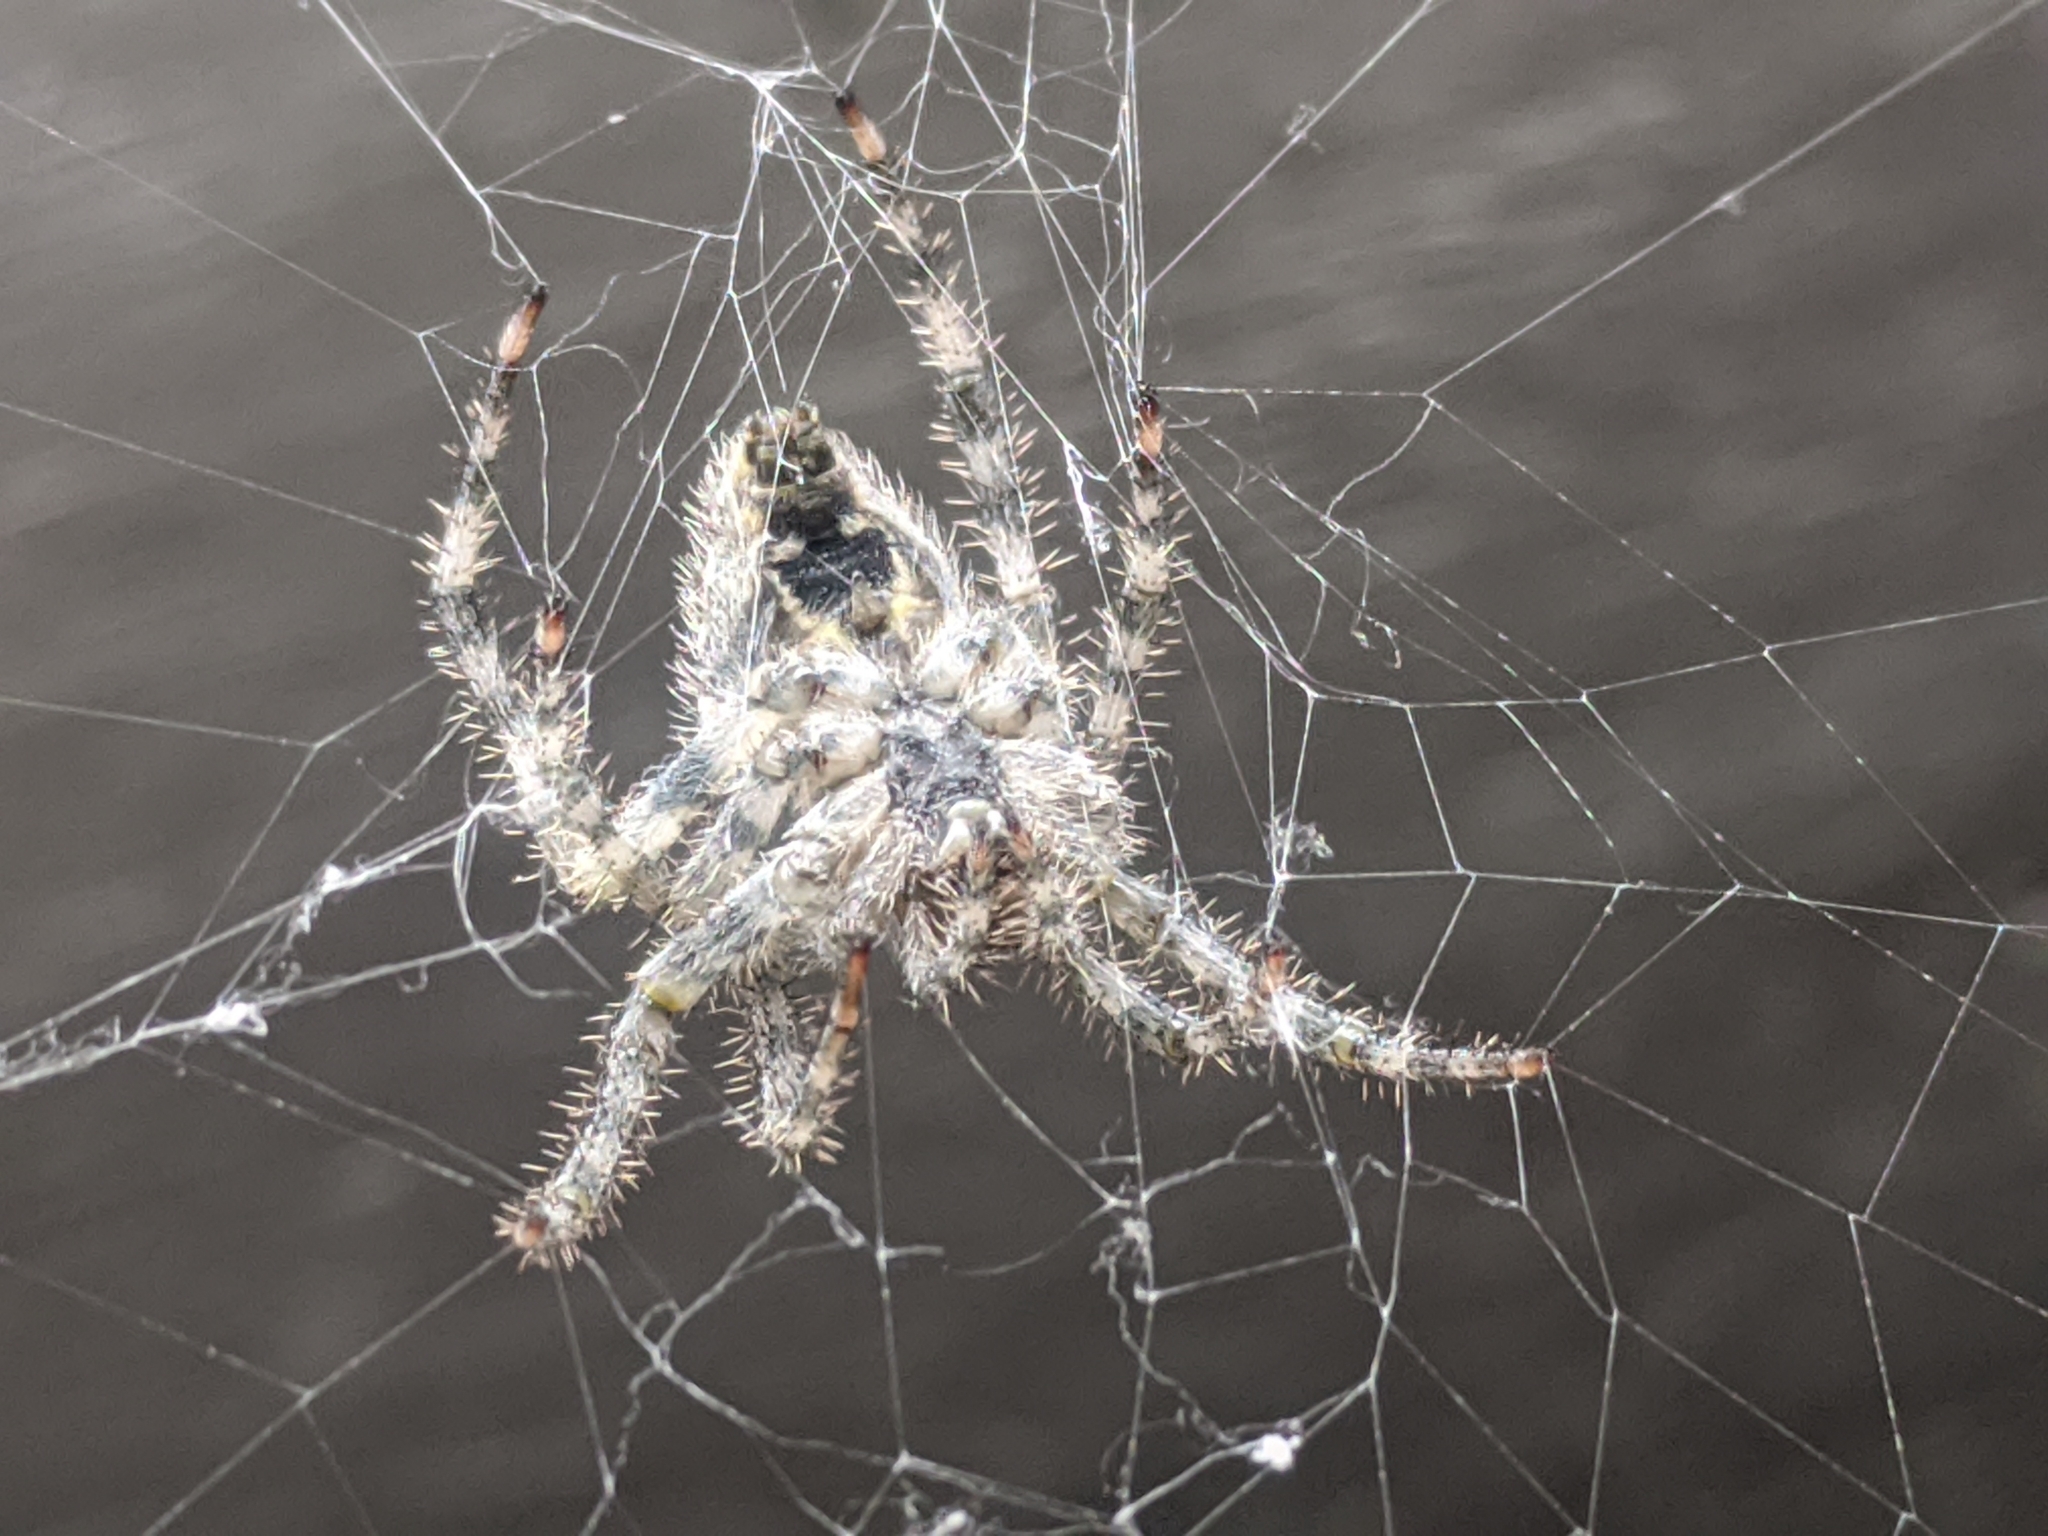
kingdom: Animalia
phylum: Arthropoda
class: Arachnida
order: Araneae
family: Araneidae
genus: Araneus
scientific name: Araneus cavaticus
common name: Barn orbweaver
